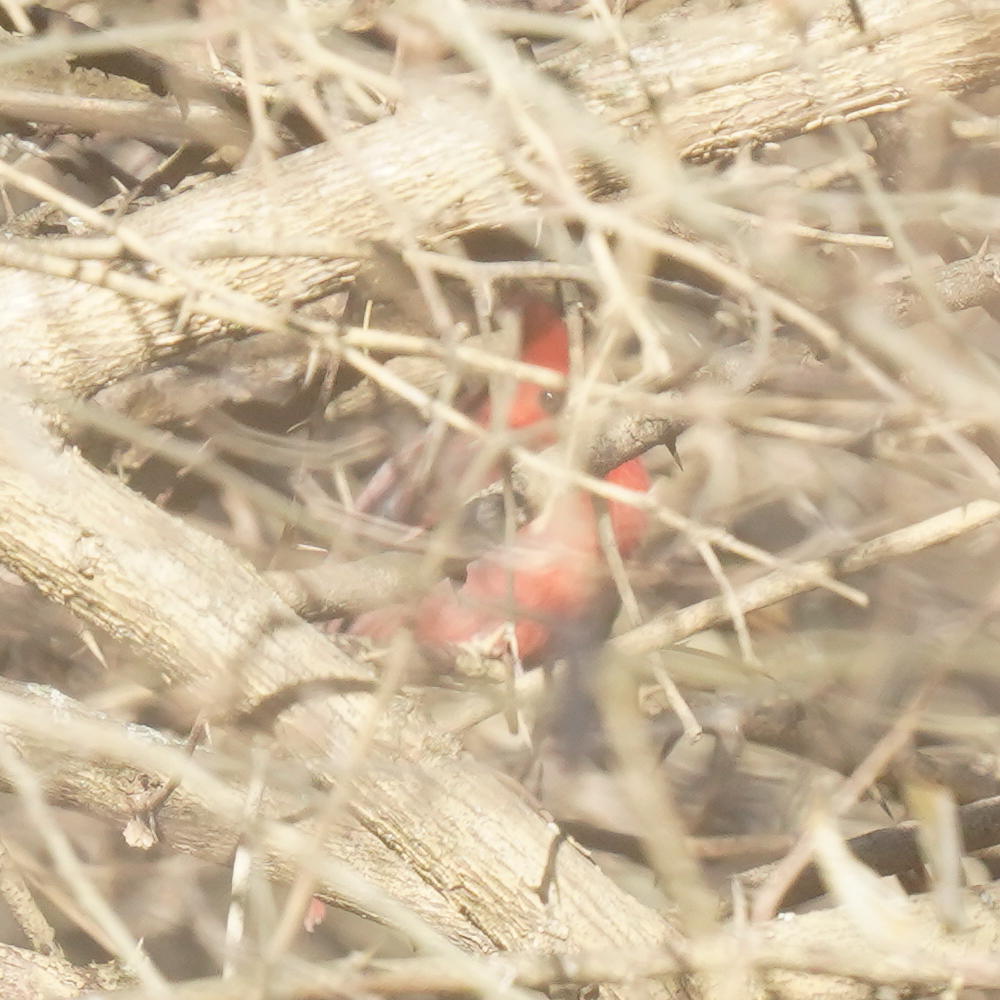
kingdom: Animalia
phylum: Chordata
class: Aves
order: Passeriformes
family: Cardinalidae
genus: Cardinalis
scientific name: Cardinalis cardinalis
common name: Northern cardinal
